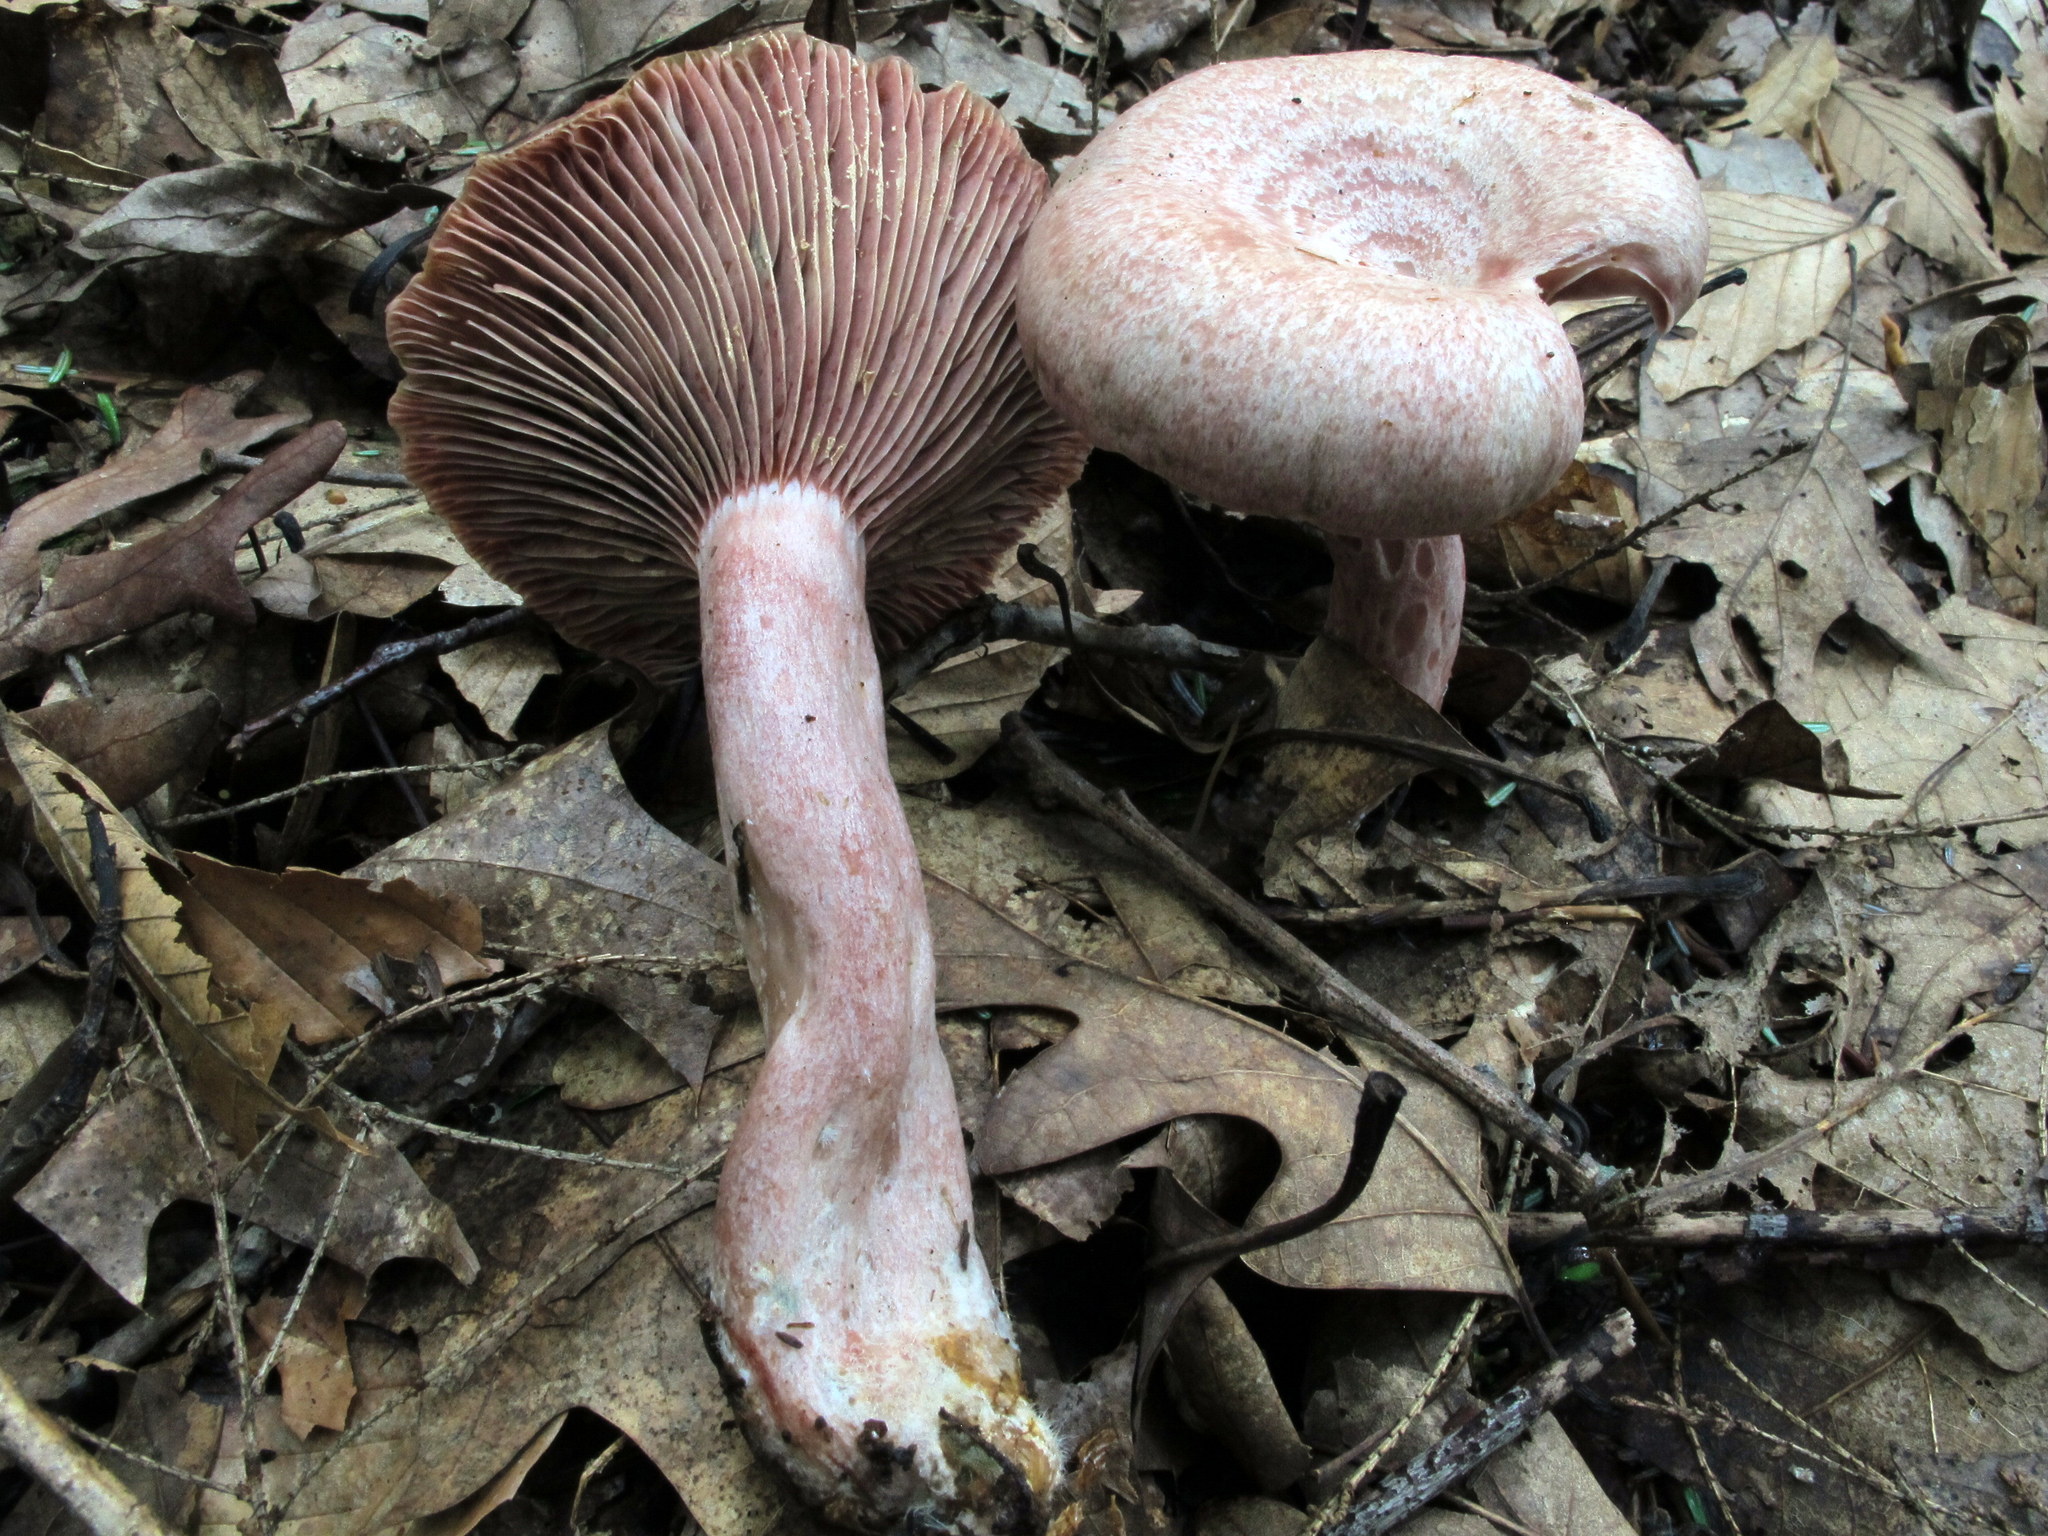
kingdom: Fungi
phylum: Basidiomycota
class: Agaricomycetes
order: Russulales
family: Russulaceae
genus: Lactarius
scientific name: Lactarius subpurpureus
